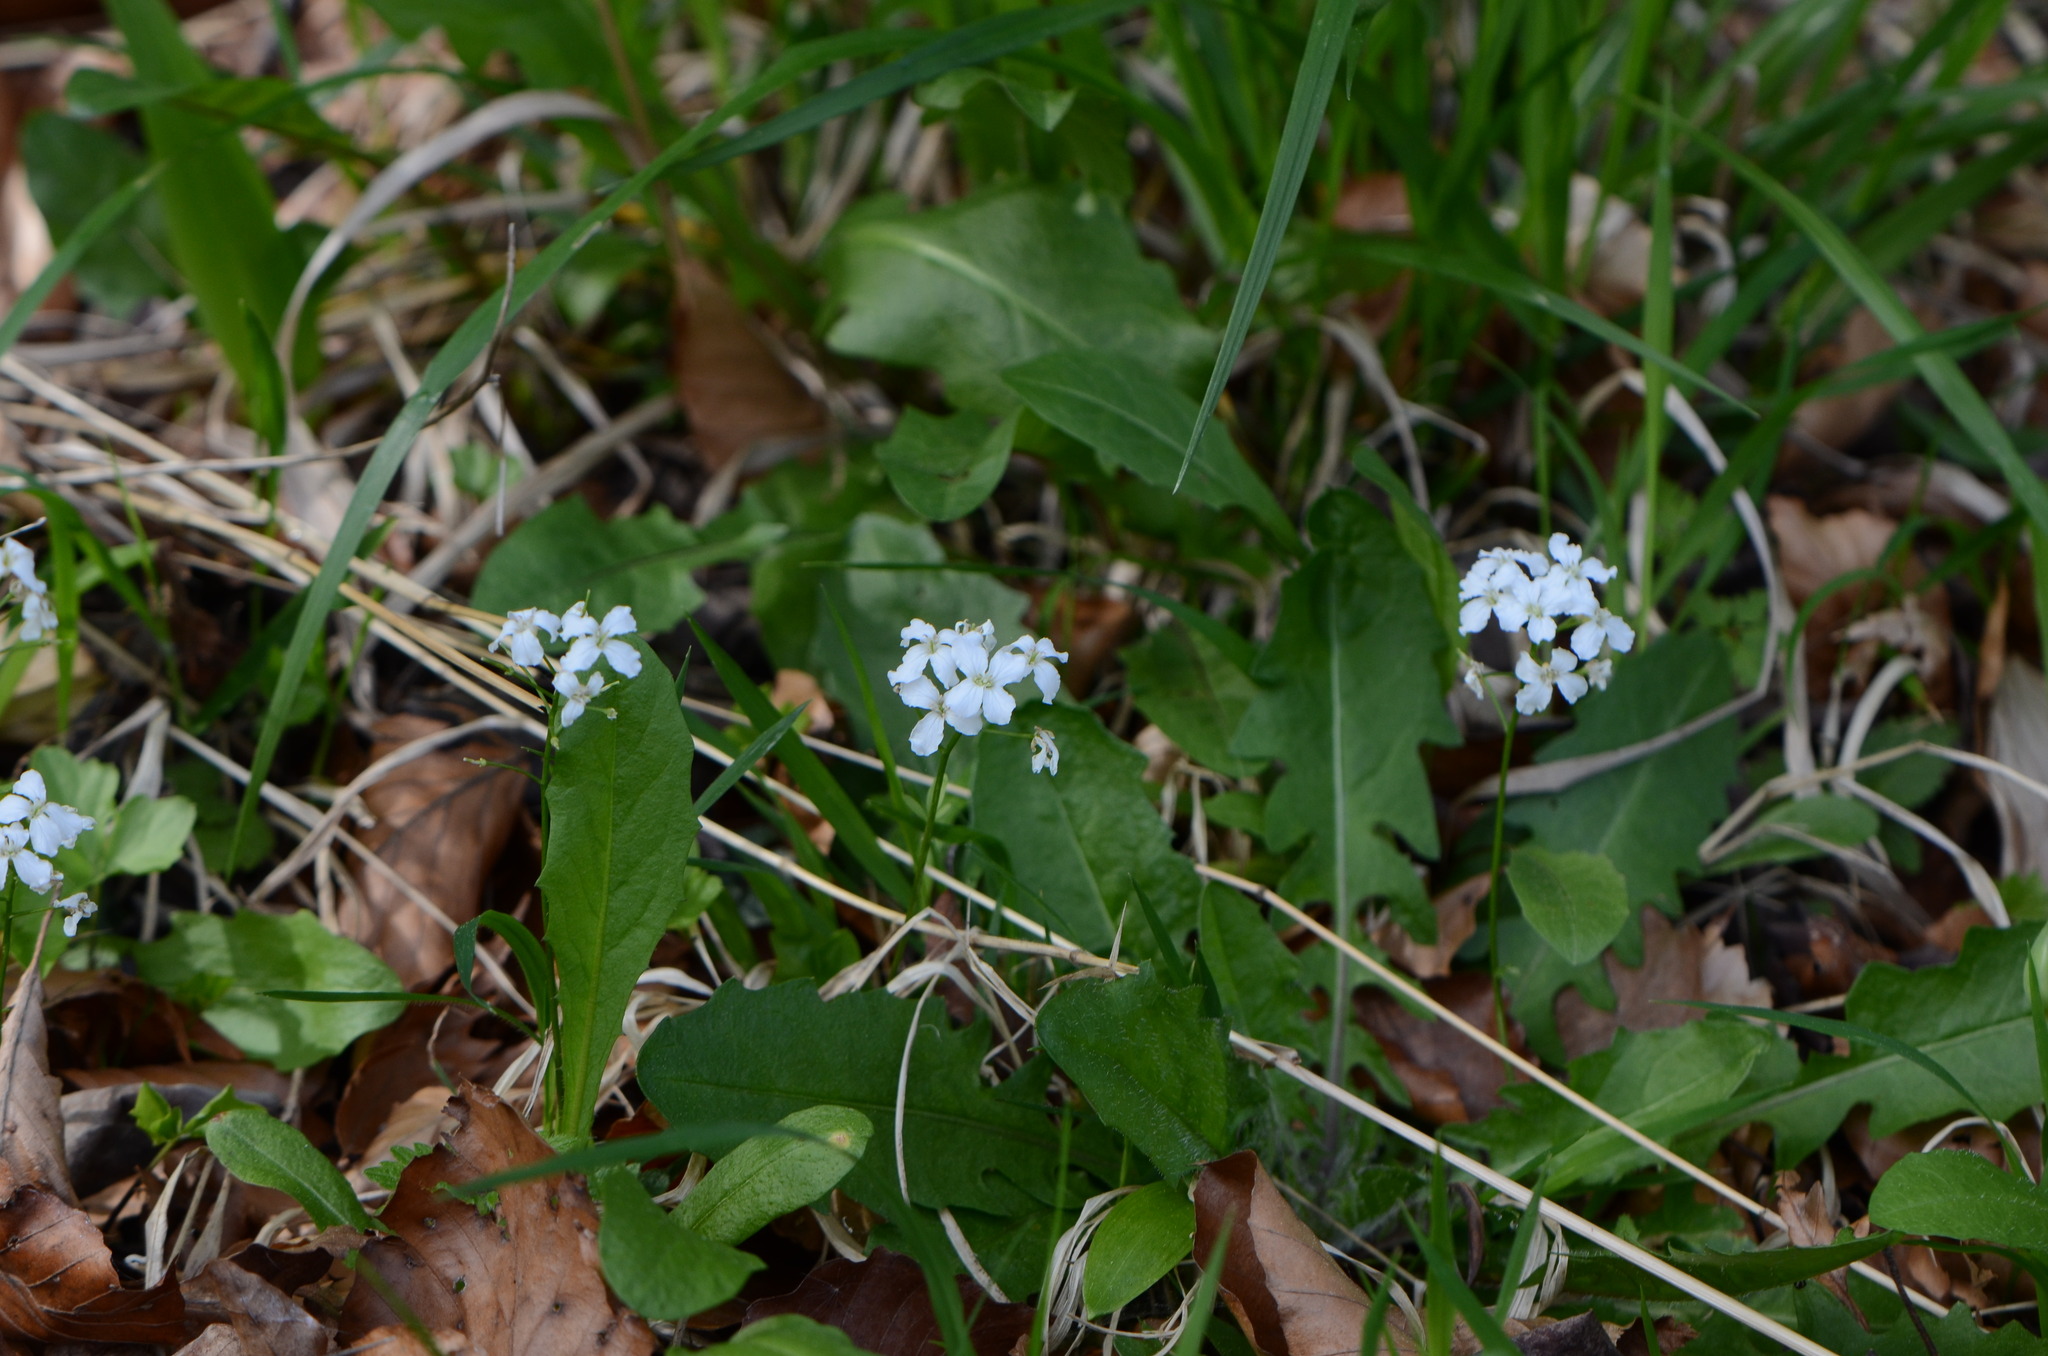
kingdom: Plantae
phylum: Tracheophyta
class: Magnoliopsida
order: Brassicales
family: Brassicaceae
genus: Cardamine
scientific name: Cardamine trifolia
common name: Trefoil cress
